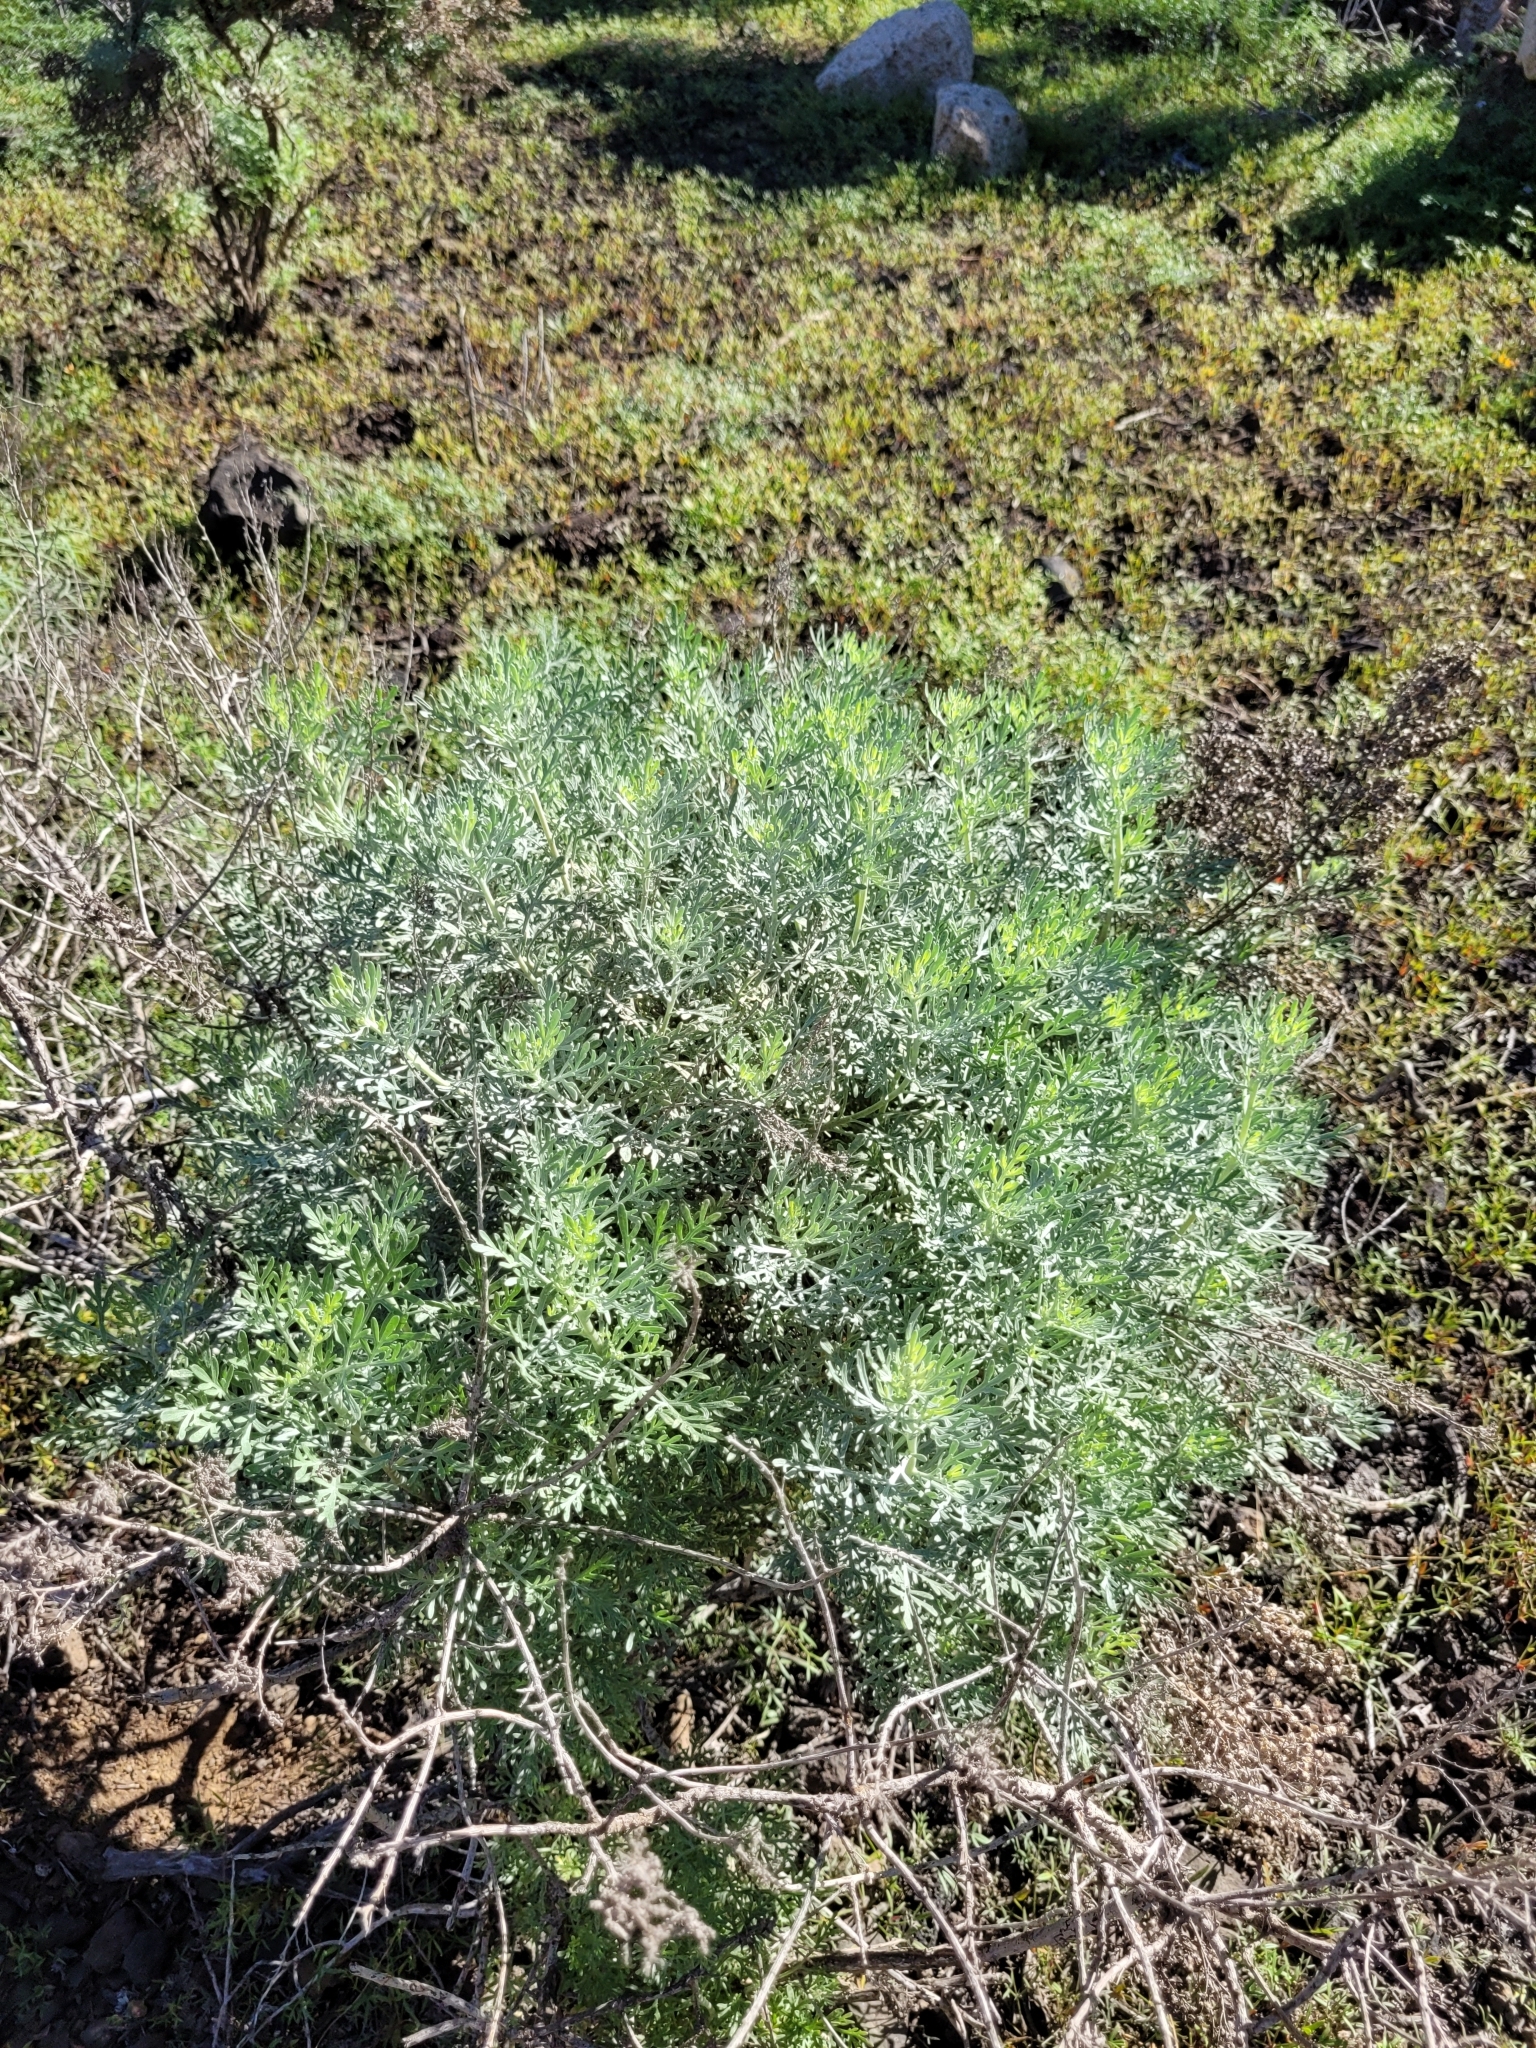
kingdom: Plantae
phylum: Tracheophyta
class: Magnoliopsida
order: Asterales
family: Asteraceae
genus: Artemisia
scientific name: Artemisia thuscula
